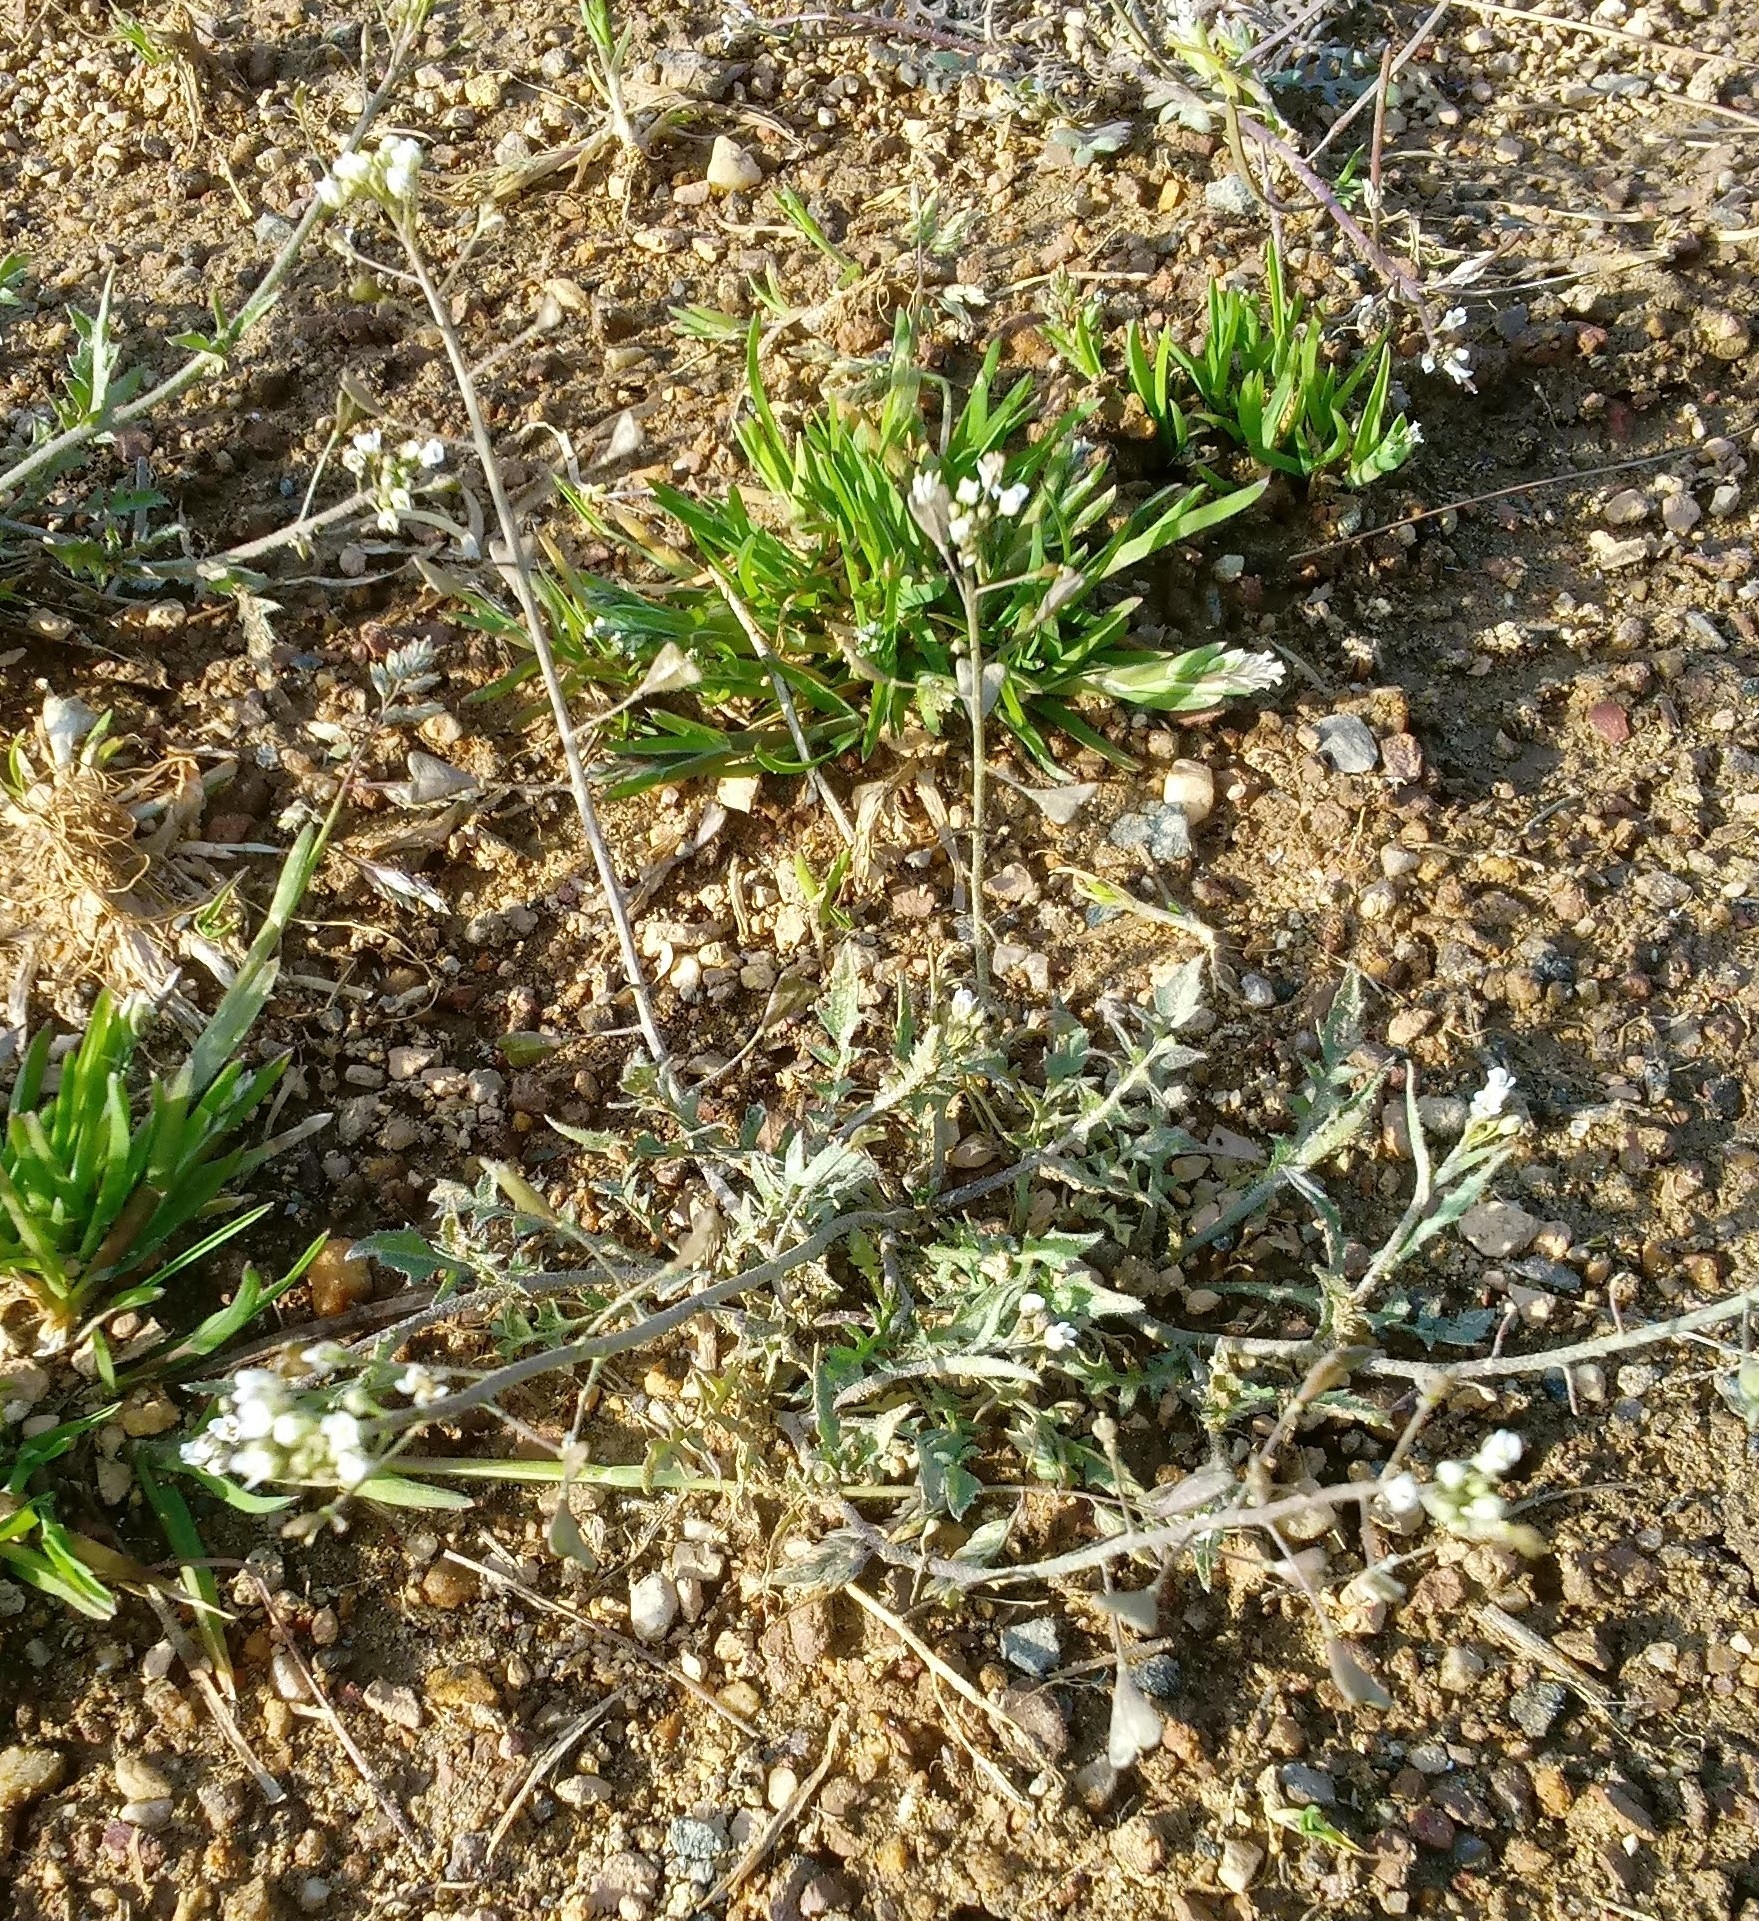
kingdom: Plantae
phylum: Tracheophyta
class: Magnoliopsida
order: Brassicales
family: Brassicaceae
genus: Capsella
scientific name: Capsella bursa-pastoris
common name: Shepherd's purse
